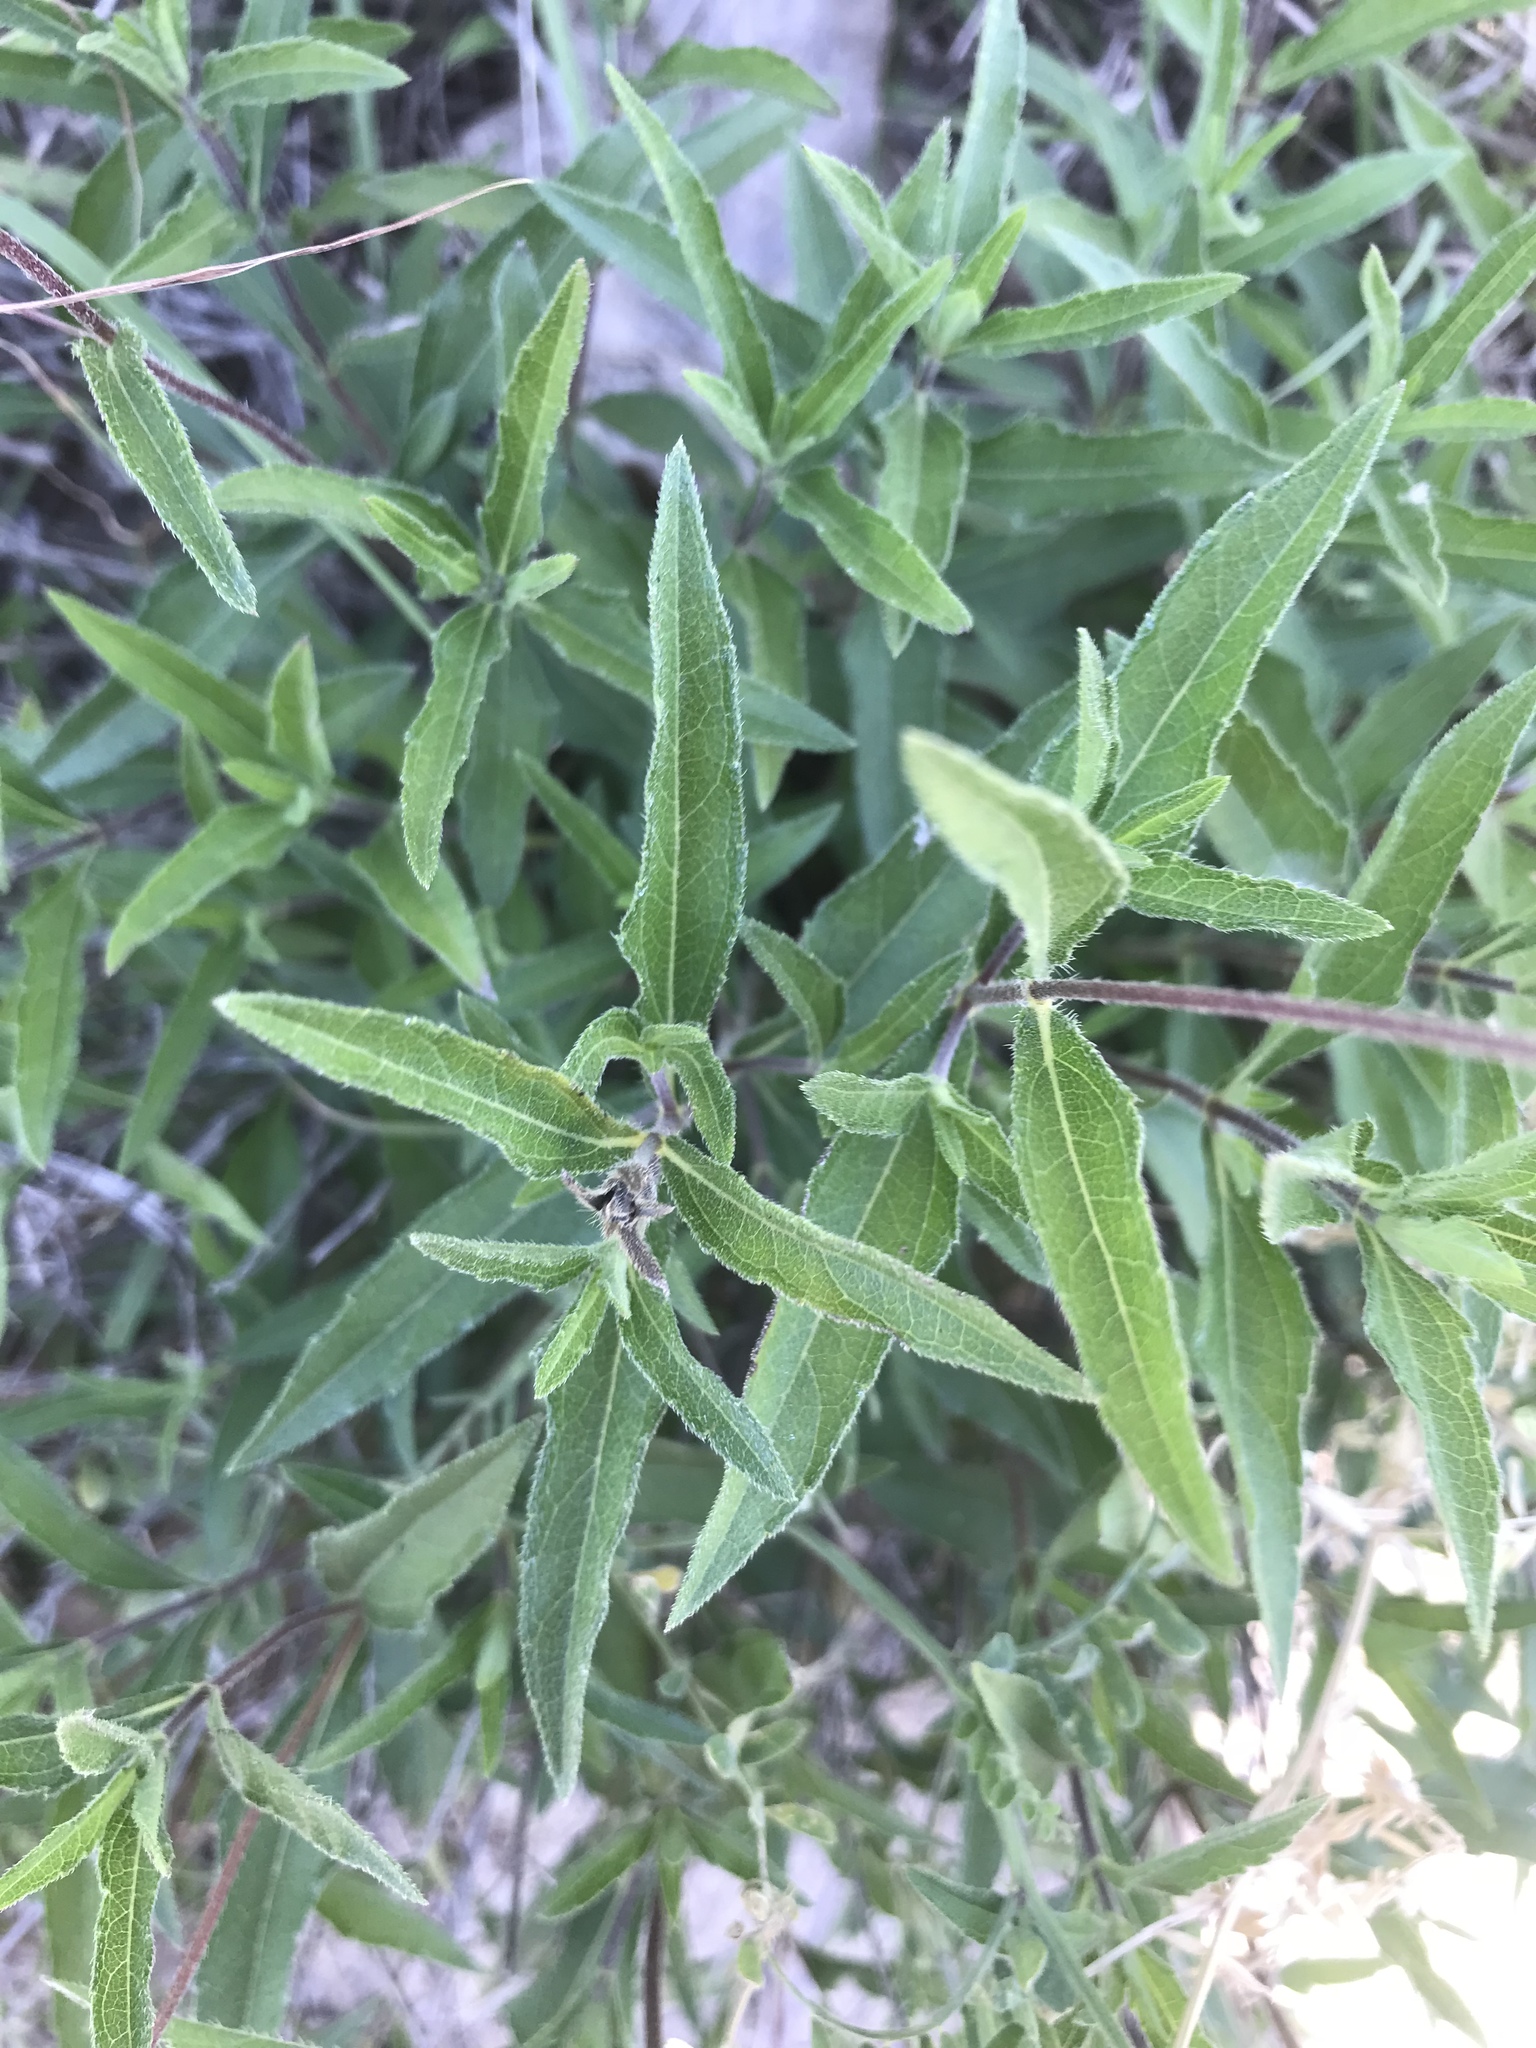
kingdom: Plantae
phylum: Tracheophyta
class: Magnoliopsida
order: Asterales
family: Asteraceae
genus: Wedelia
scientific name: Wedelia acapulcensis
